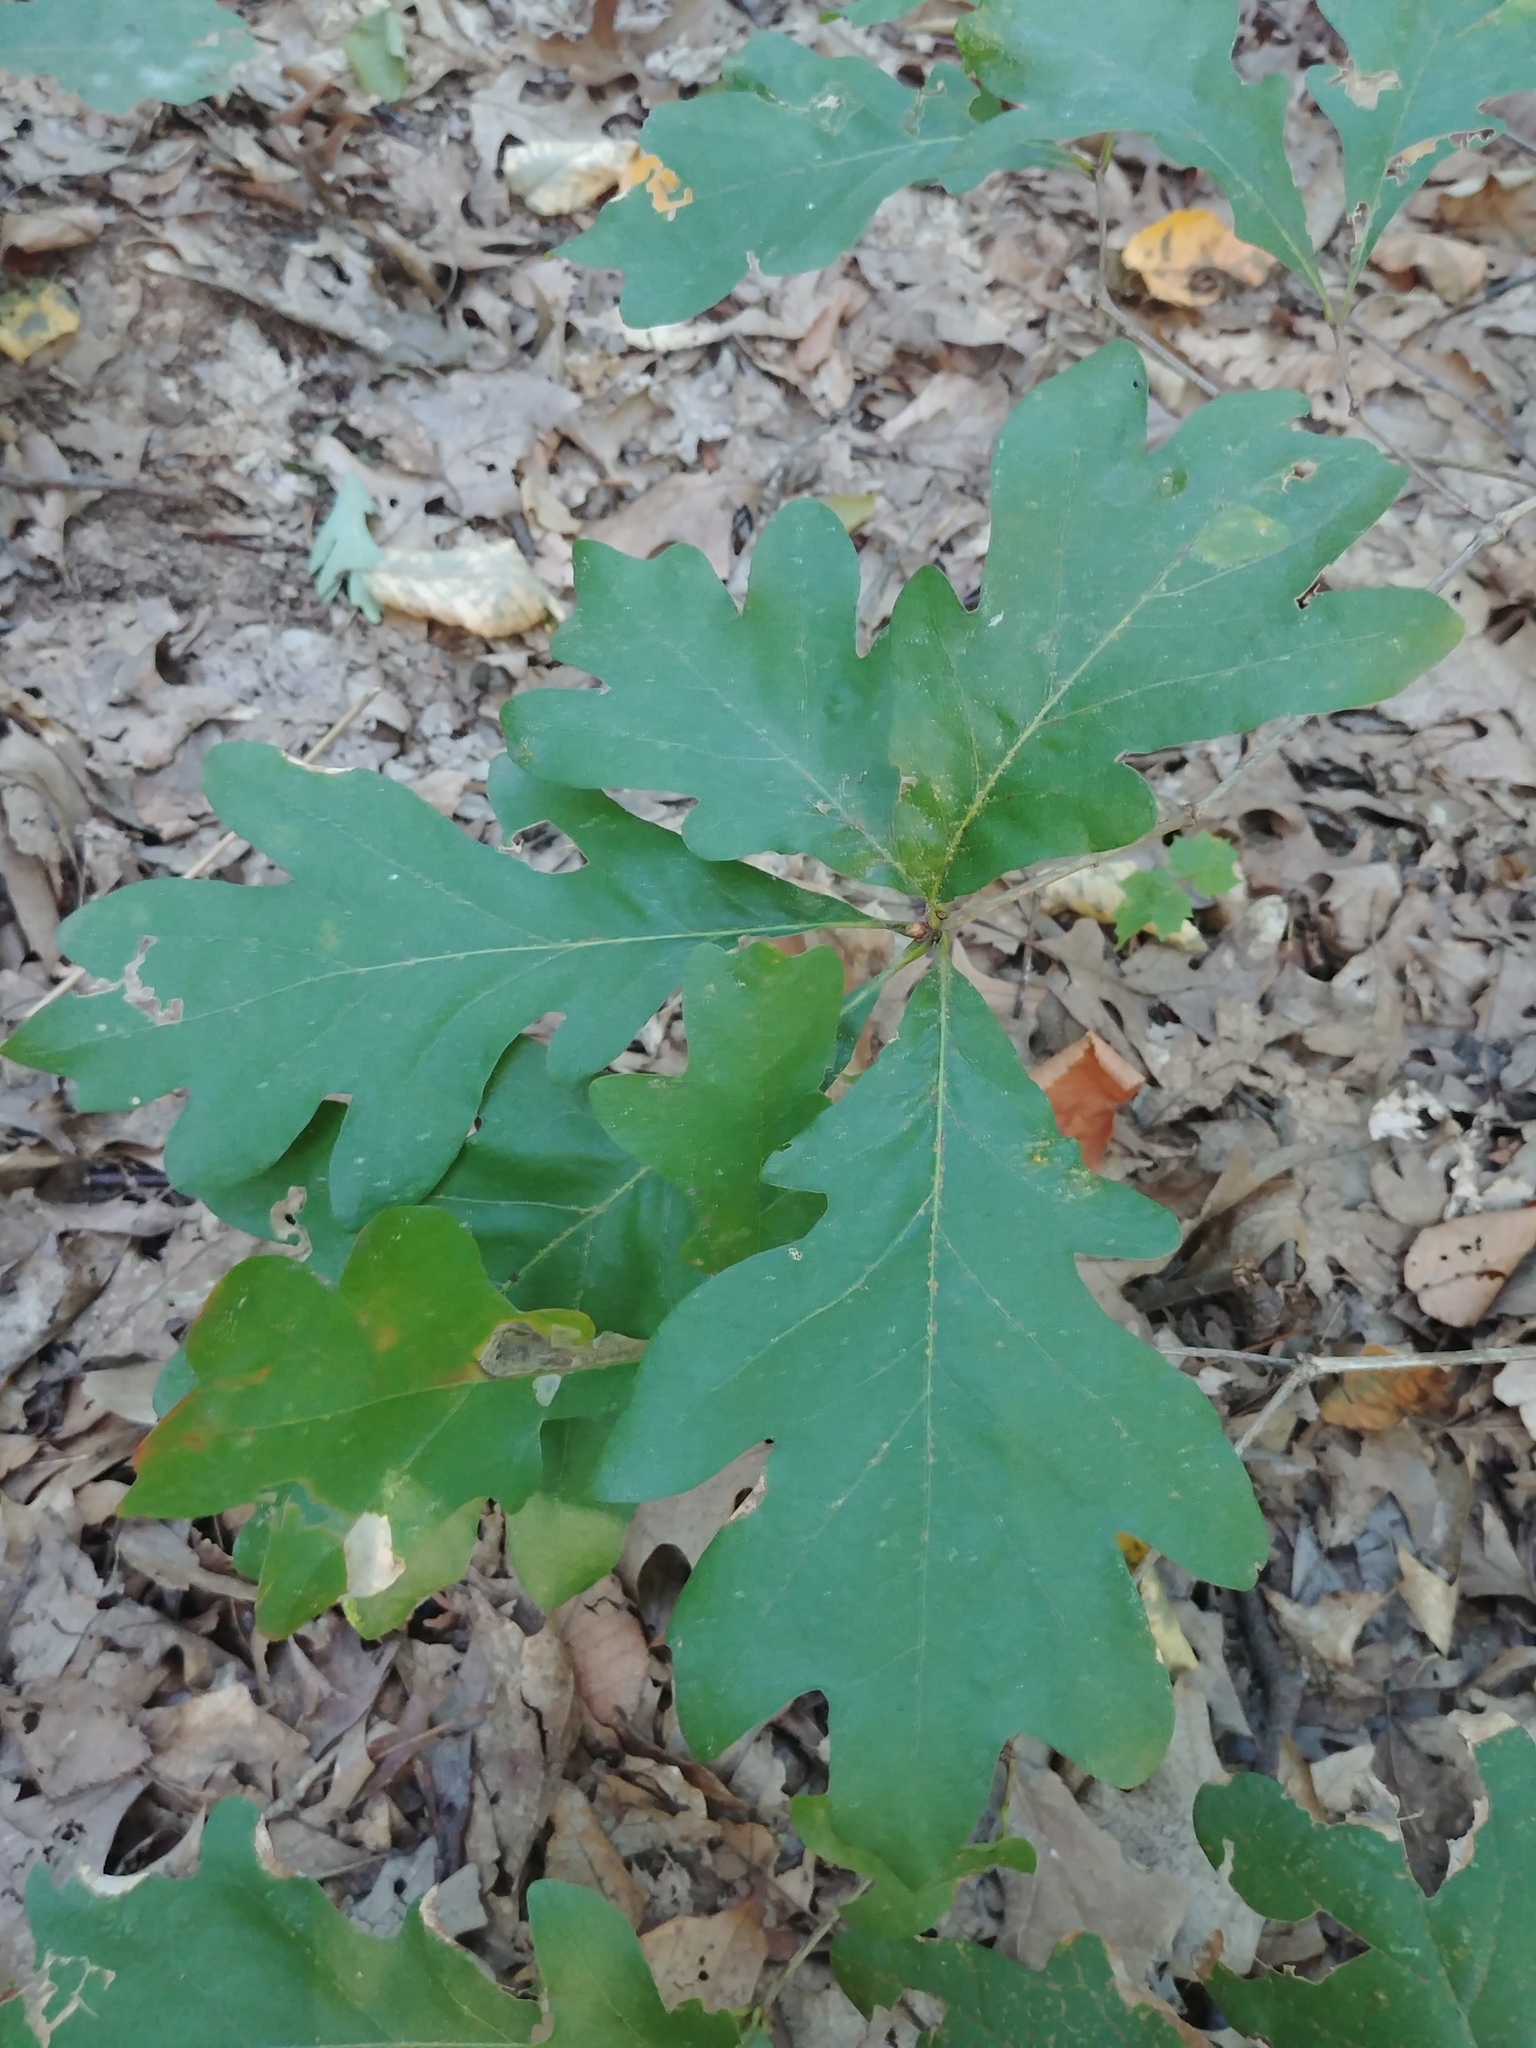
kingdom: Plantae
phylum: Tracheophyta
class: Magnoliopsida
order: Fagales
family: Fagaceae
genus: Quercus
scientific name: Quercus alba
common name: White oak
